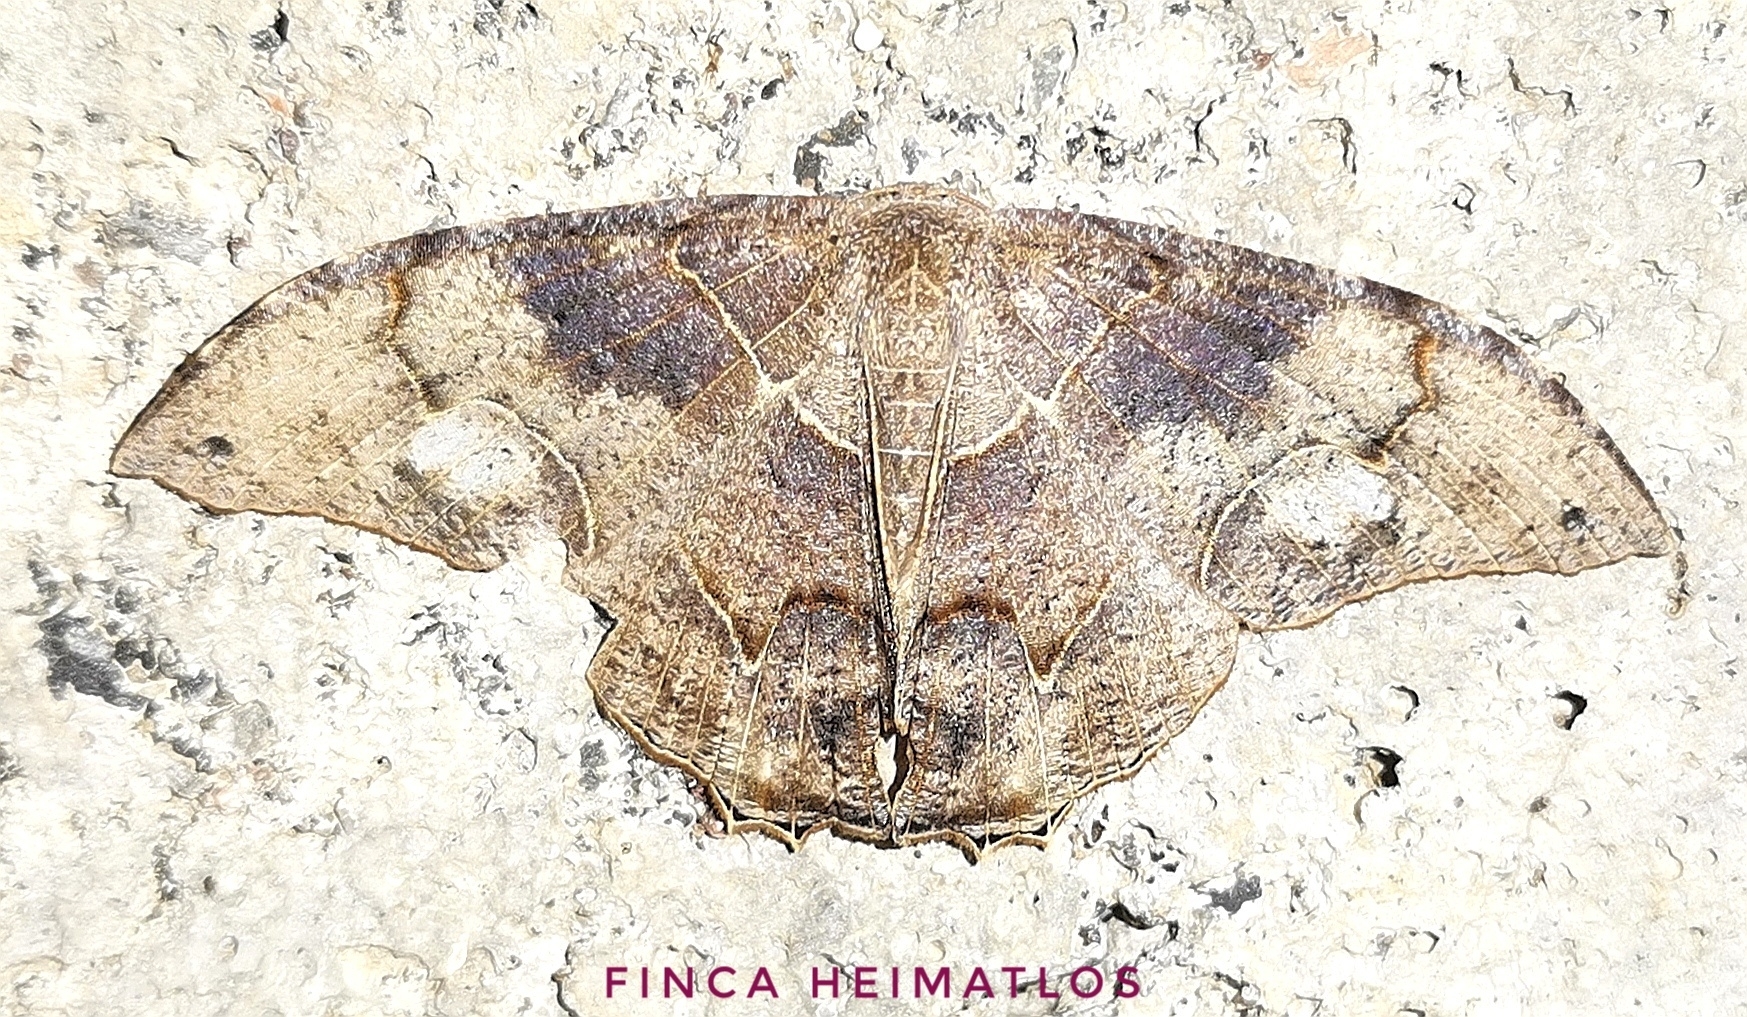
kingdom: Animalia
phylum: Arthropoda
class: Insecta
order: Lepidoptera
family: Uraniidae
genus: Syngria
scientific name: Syngria druidaria
